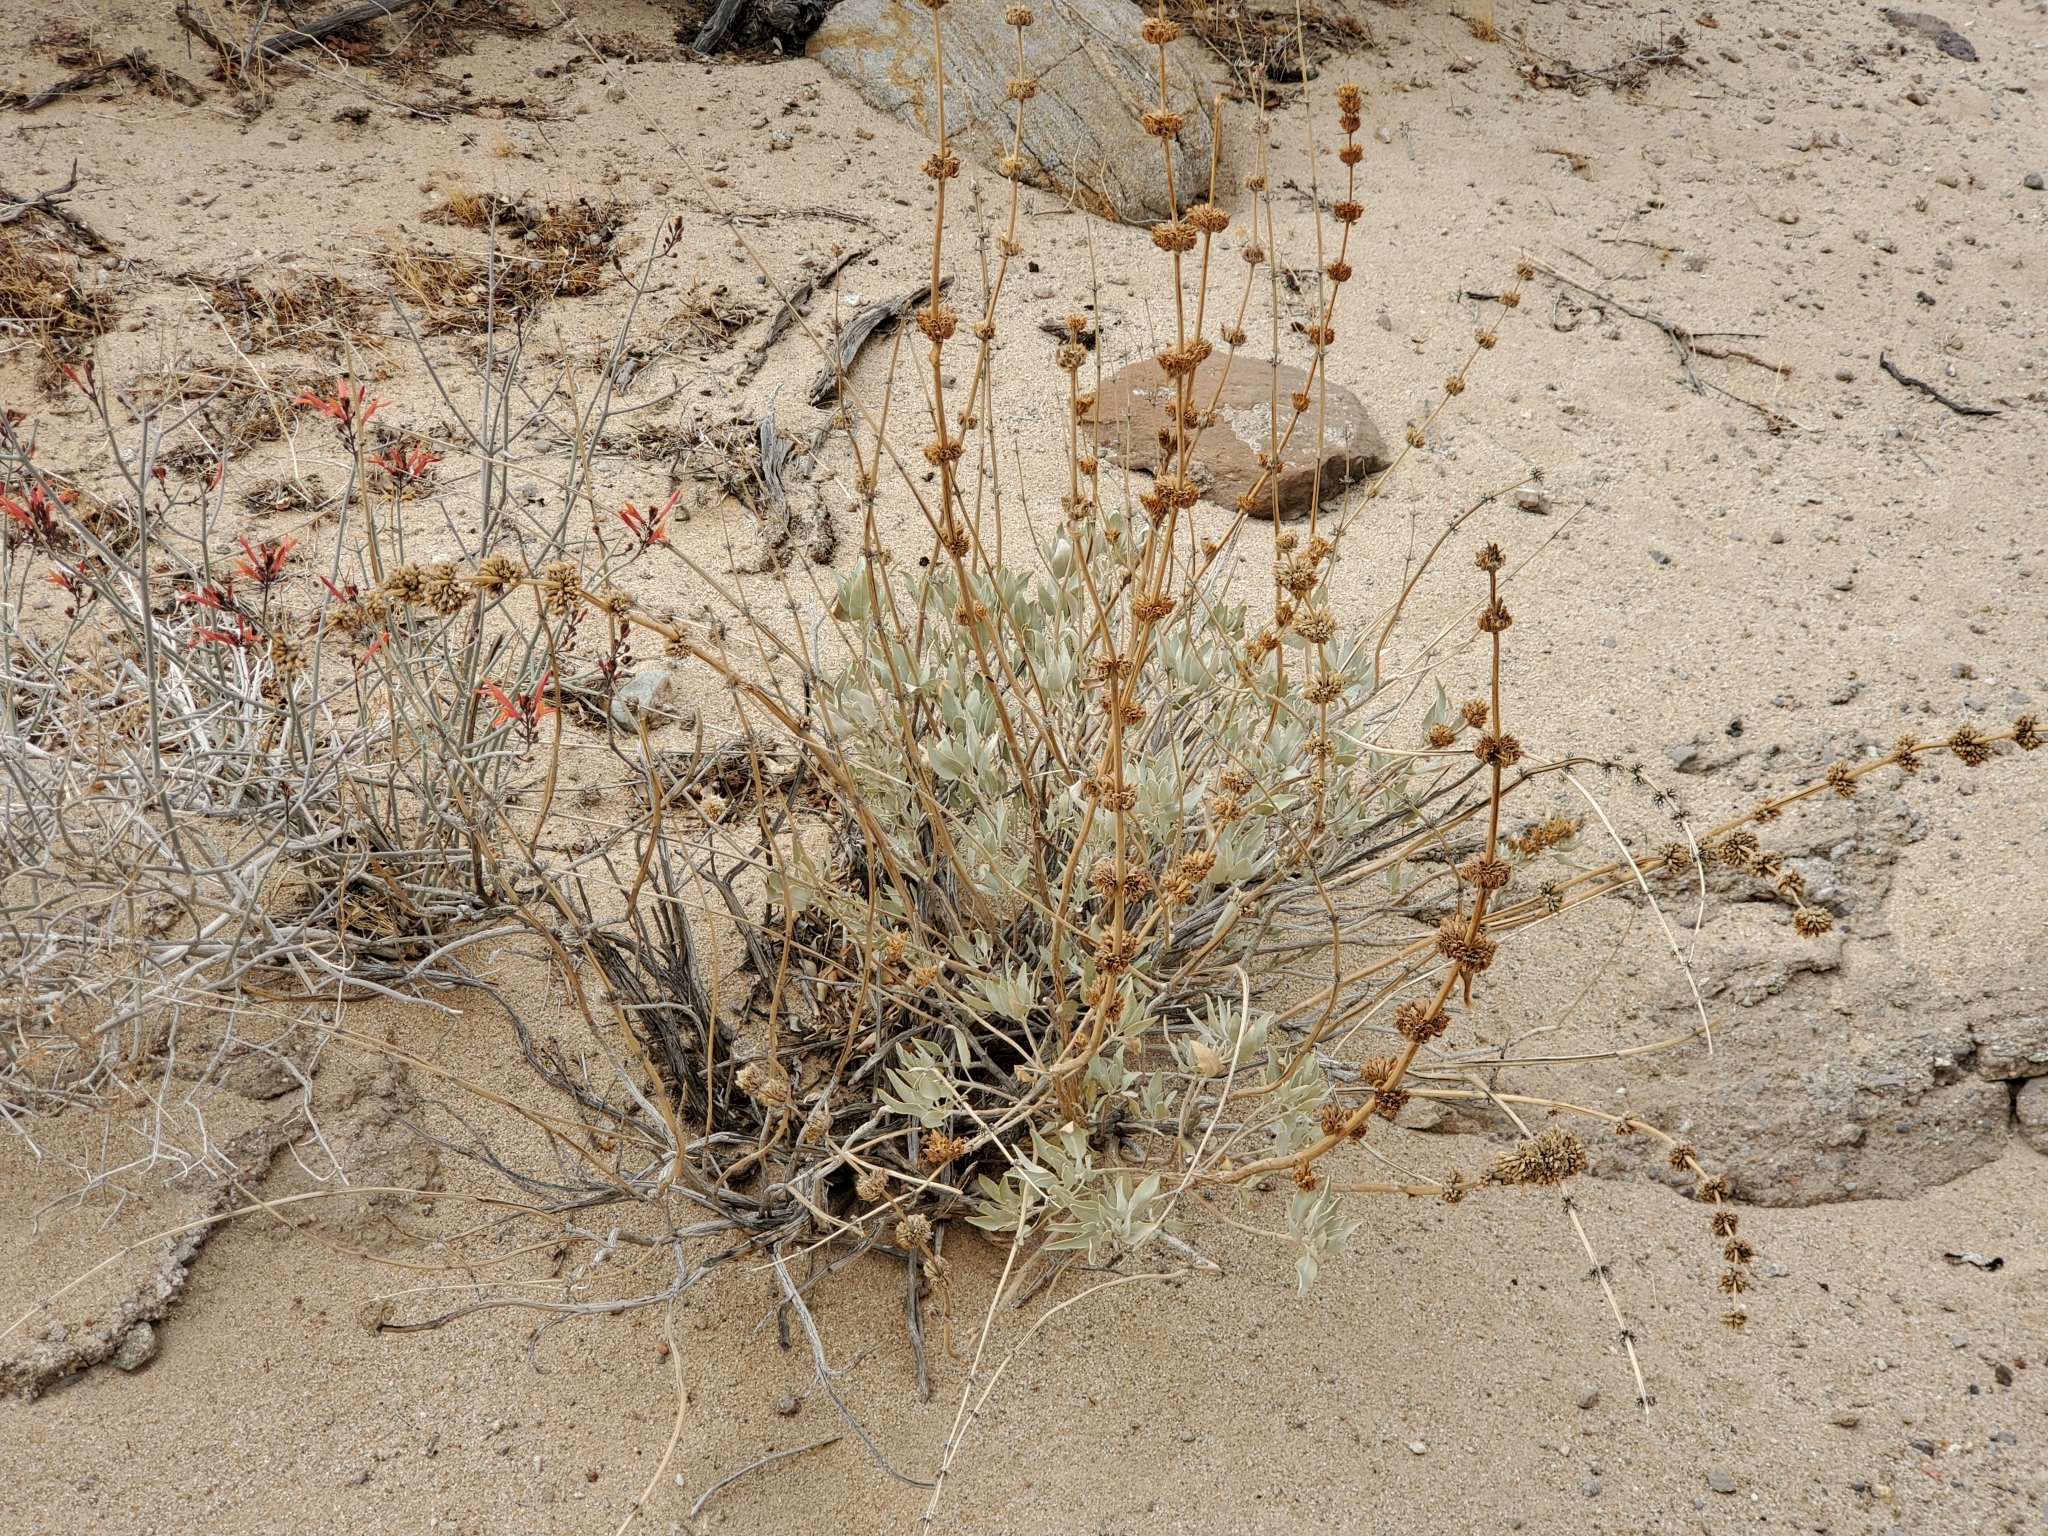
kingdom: Plantae
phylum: Tracheophyta
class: Magnoliopsida
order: Lamiales
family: Lamiaceae
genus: Salvia
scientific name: Salvia vaseyi
